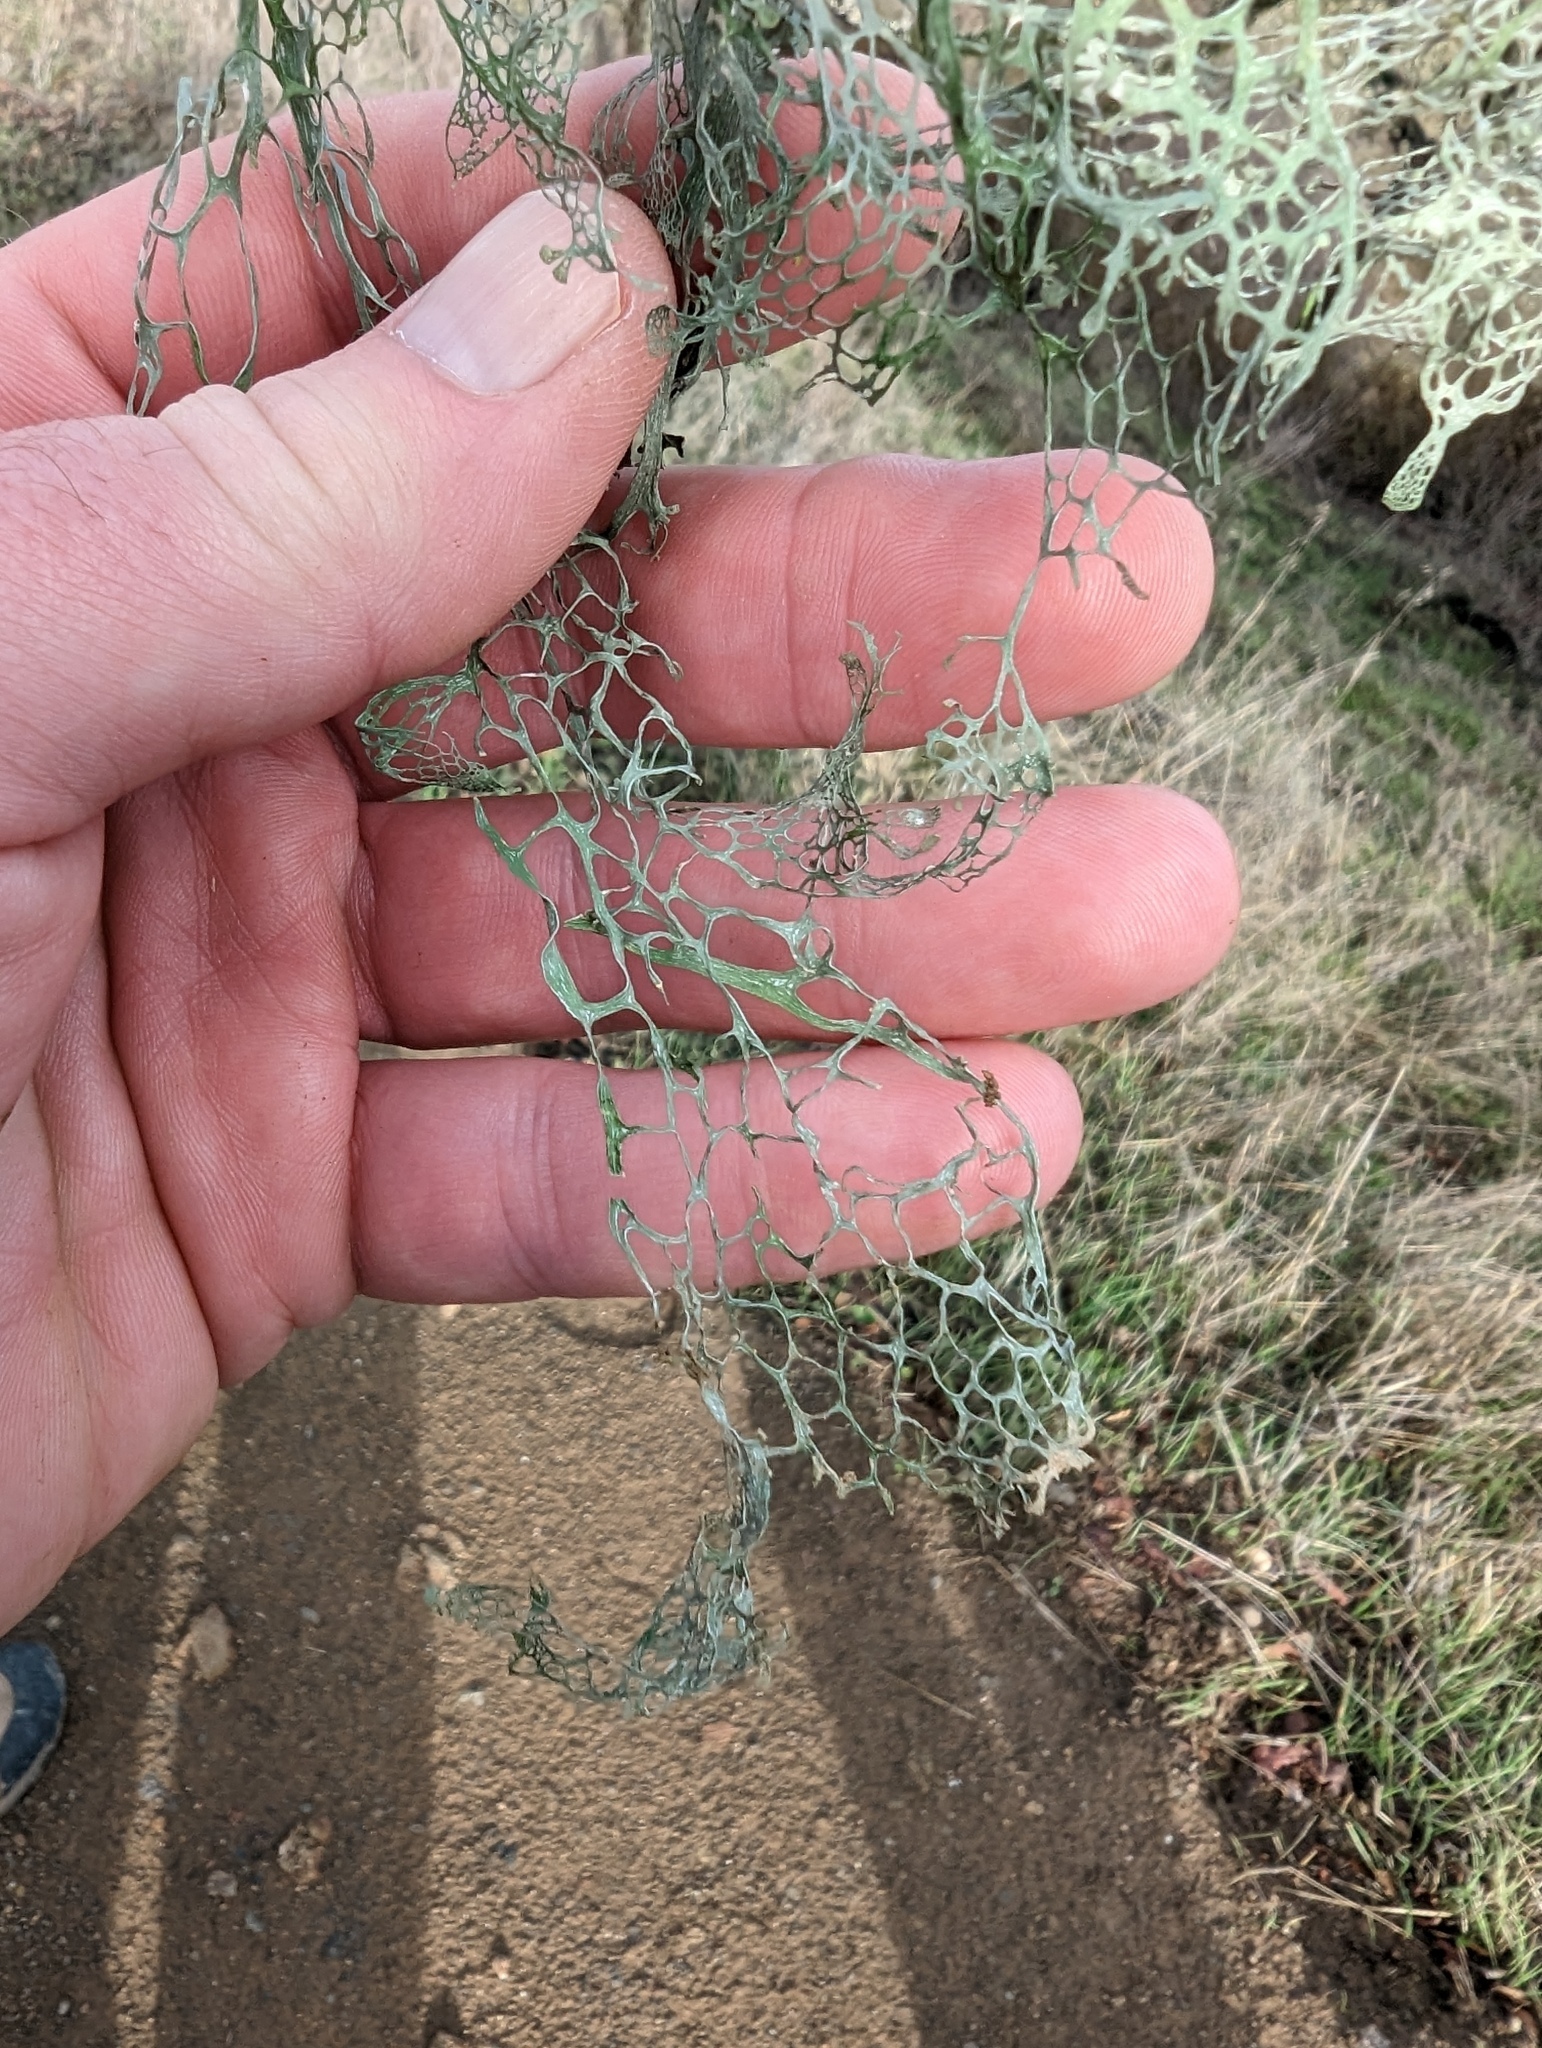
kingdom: Fungi
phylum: Ascomycota
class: Lecanoromycetes
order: Lecanorales
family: Ramalinaceae
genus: Ramalina
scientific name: Ramalina menziesii
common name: Lace lichen
